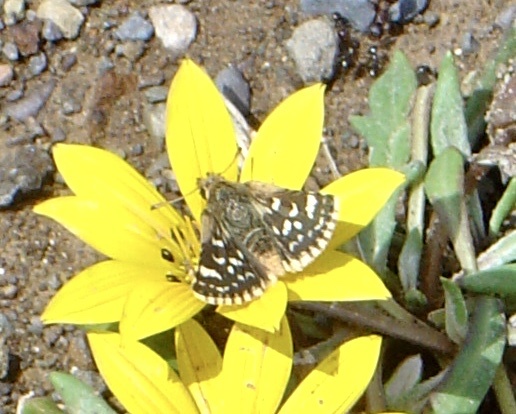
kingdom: Animalia
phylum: Arthropoda
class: Insecta
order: Lepidoptera
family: Hesperiidae
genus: Ernsta
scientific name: Ernsta
